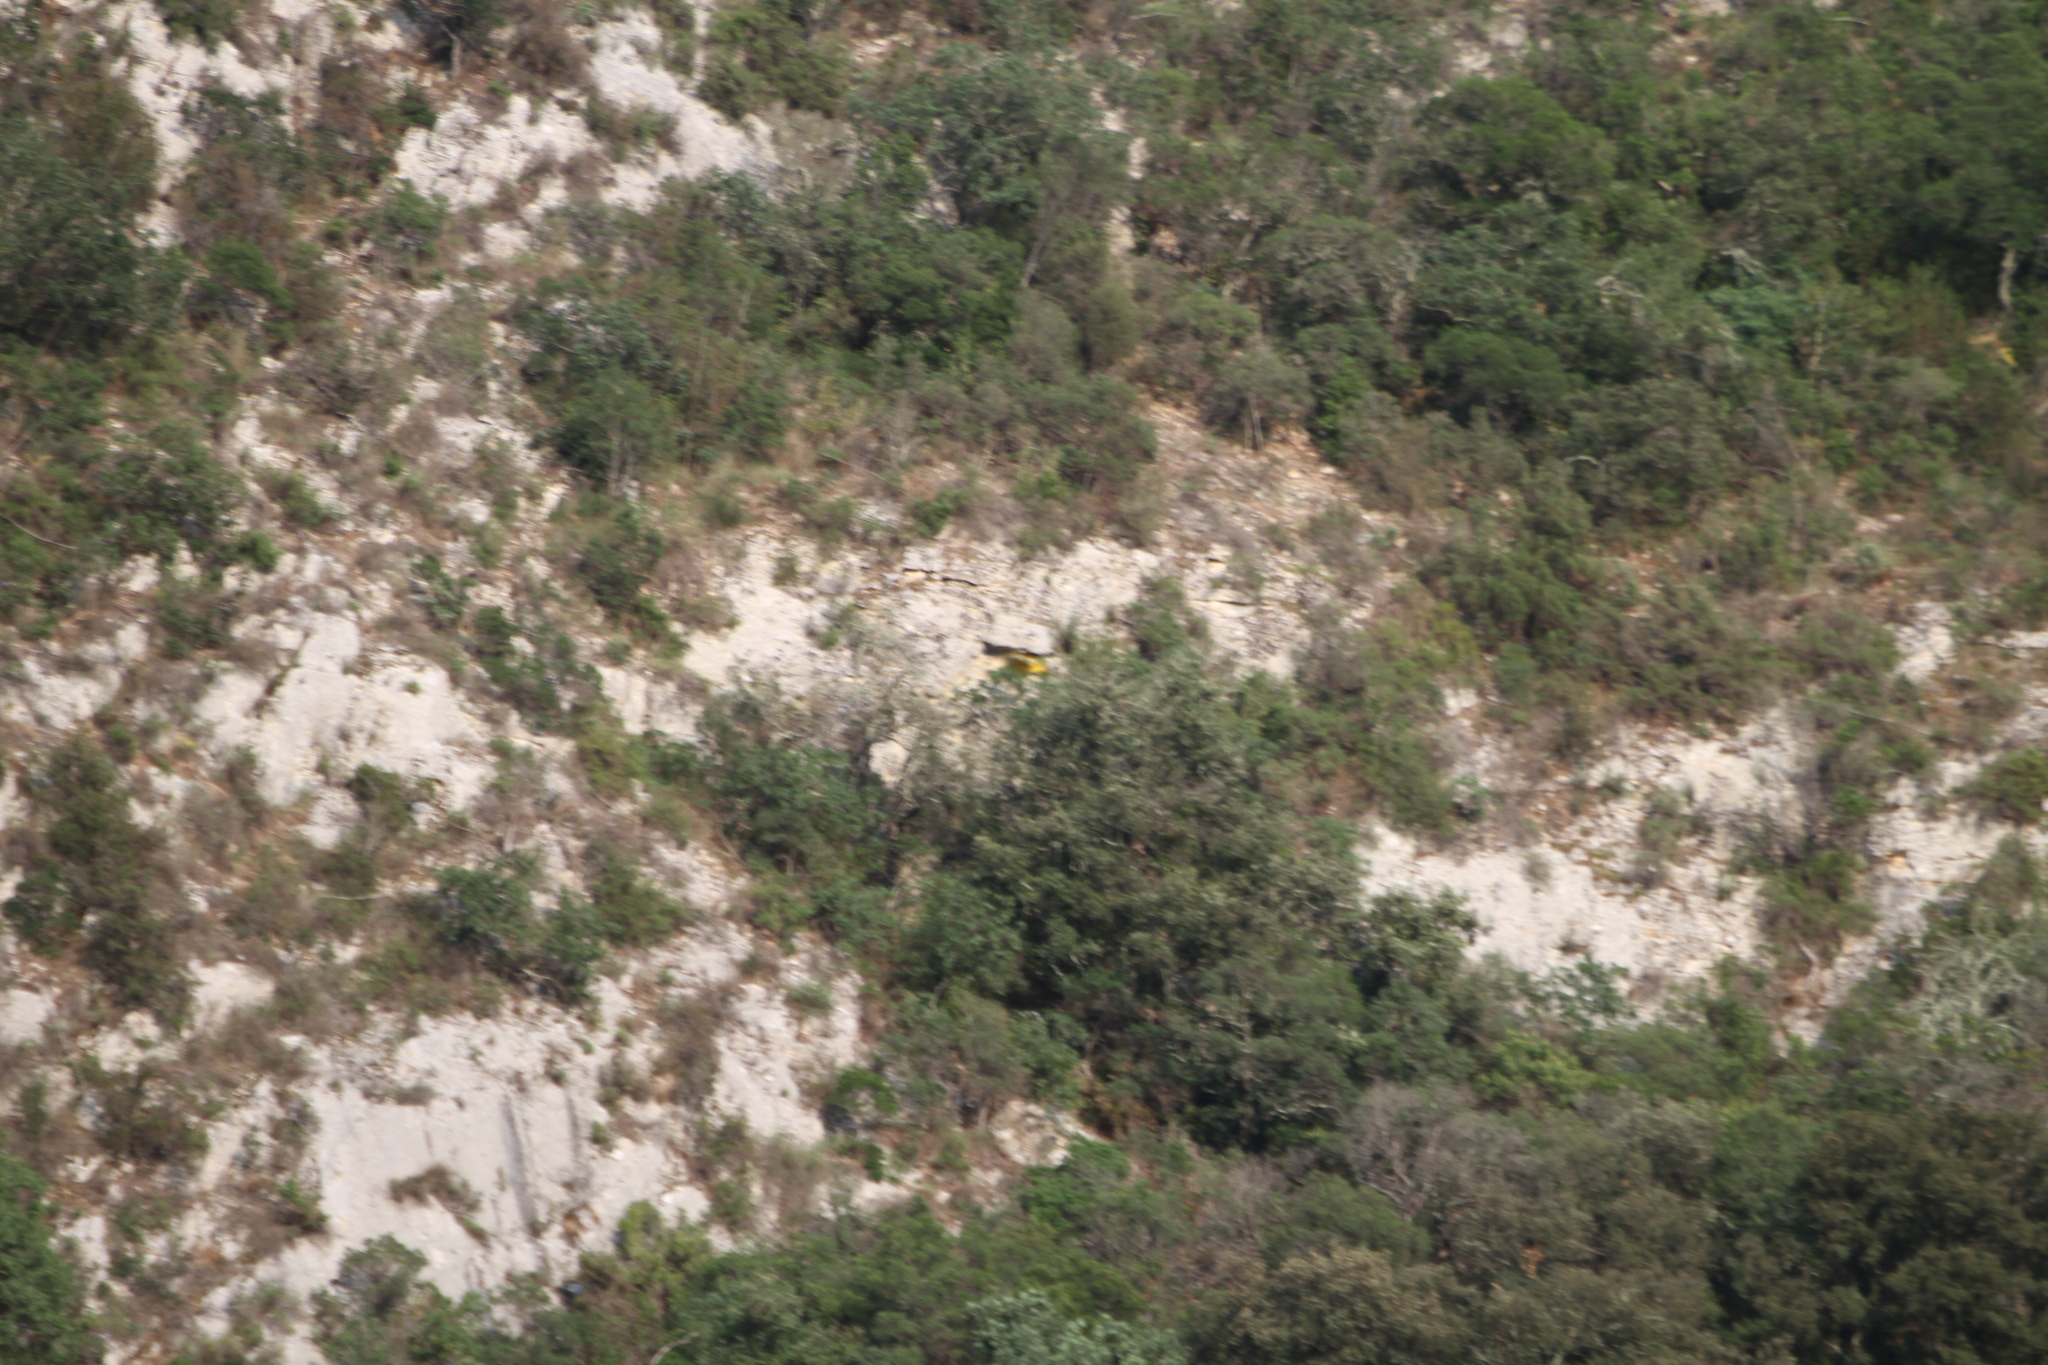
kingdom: Animalia
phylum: Chordata
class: Aves
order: Passeriformes
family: Oriolidae
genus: Oriolus
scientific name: Oriolus oriolus
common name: Eurasian golden oriole
